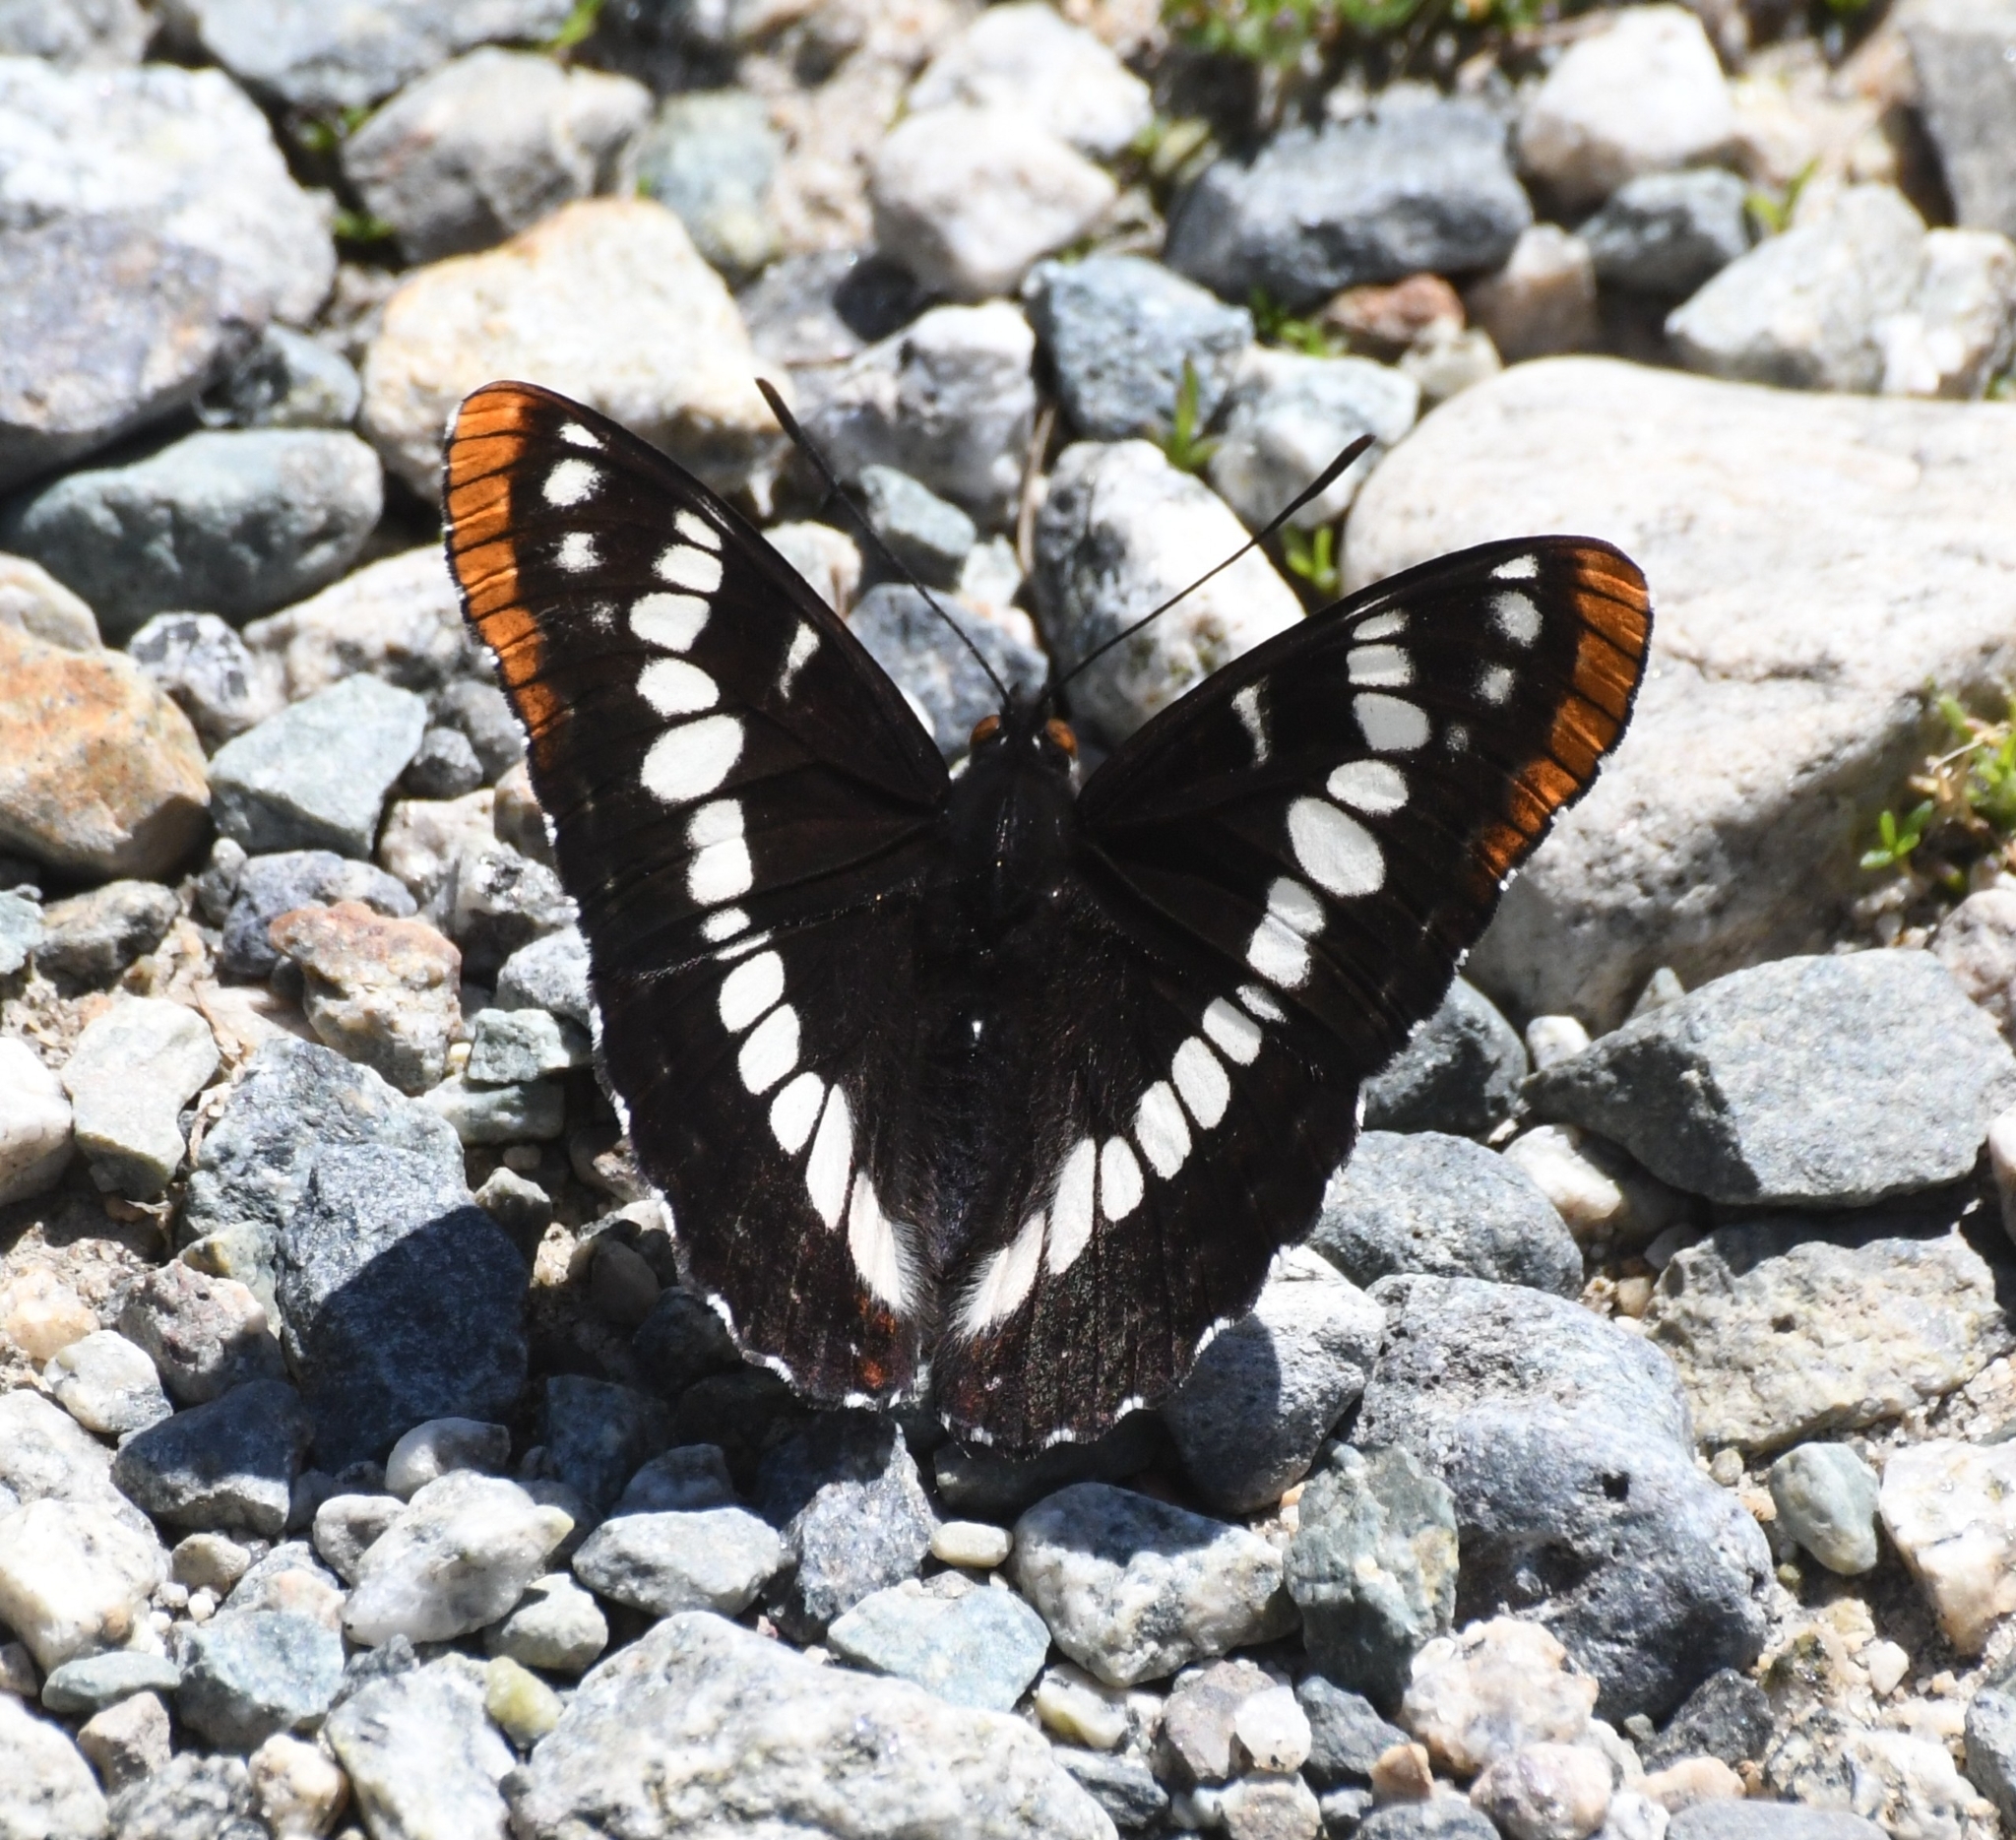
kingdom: Animalia
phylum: Arthropoda
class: Insecta
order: Lepidoptera
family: Nymphalidae
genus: Limenitis
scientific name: Limenitis lorquini
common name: Lorquin's admiral
